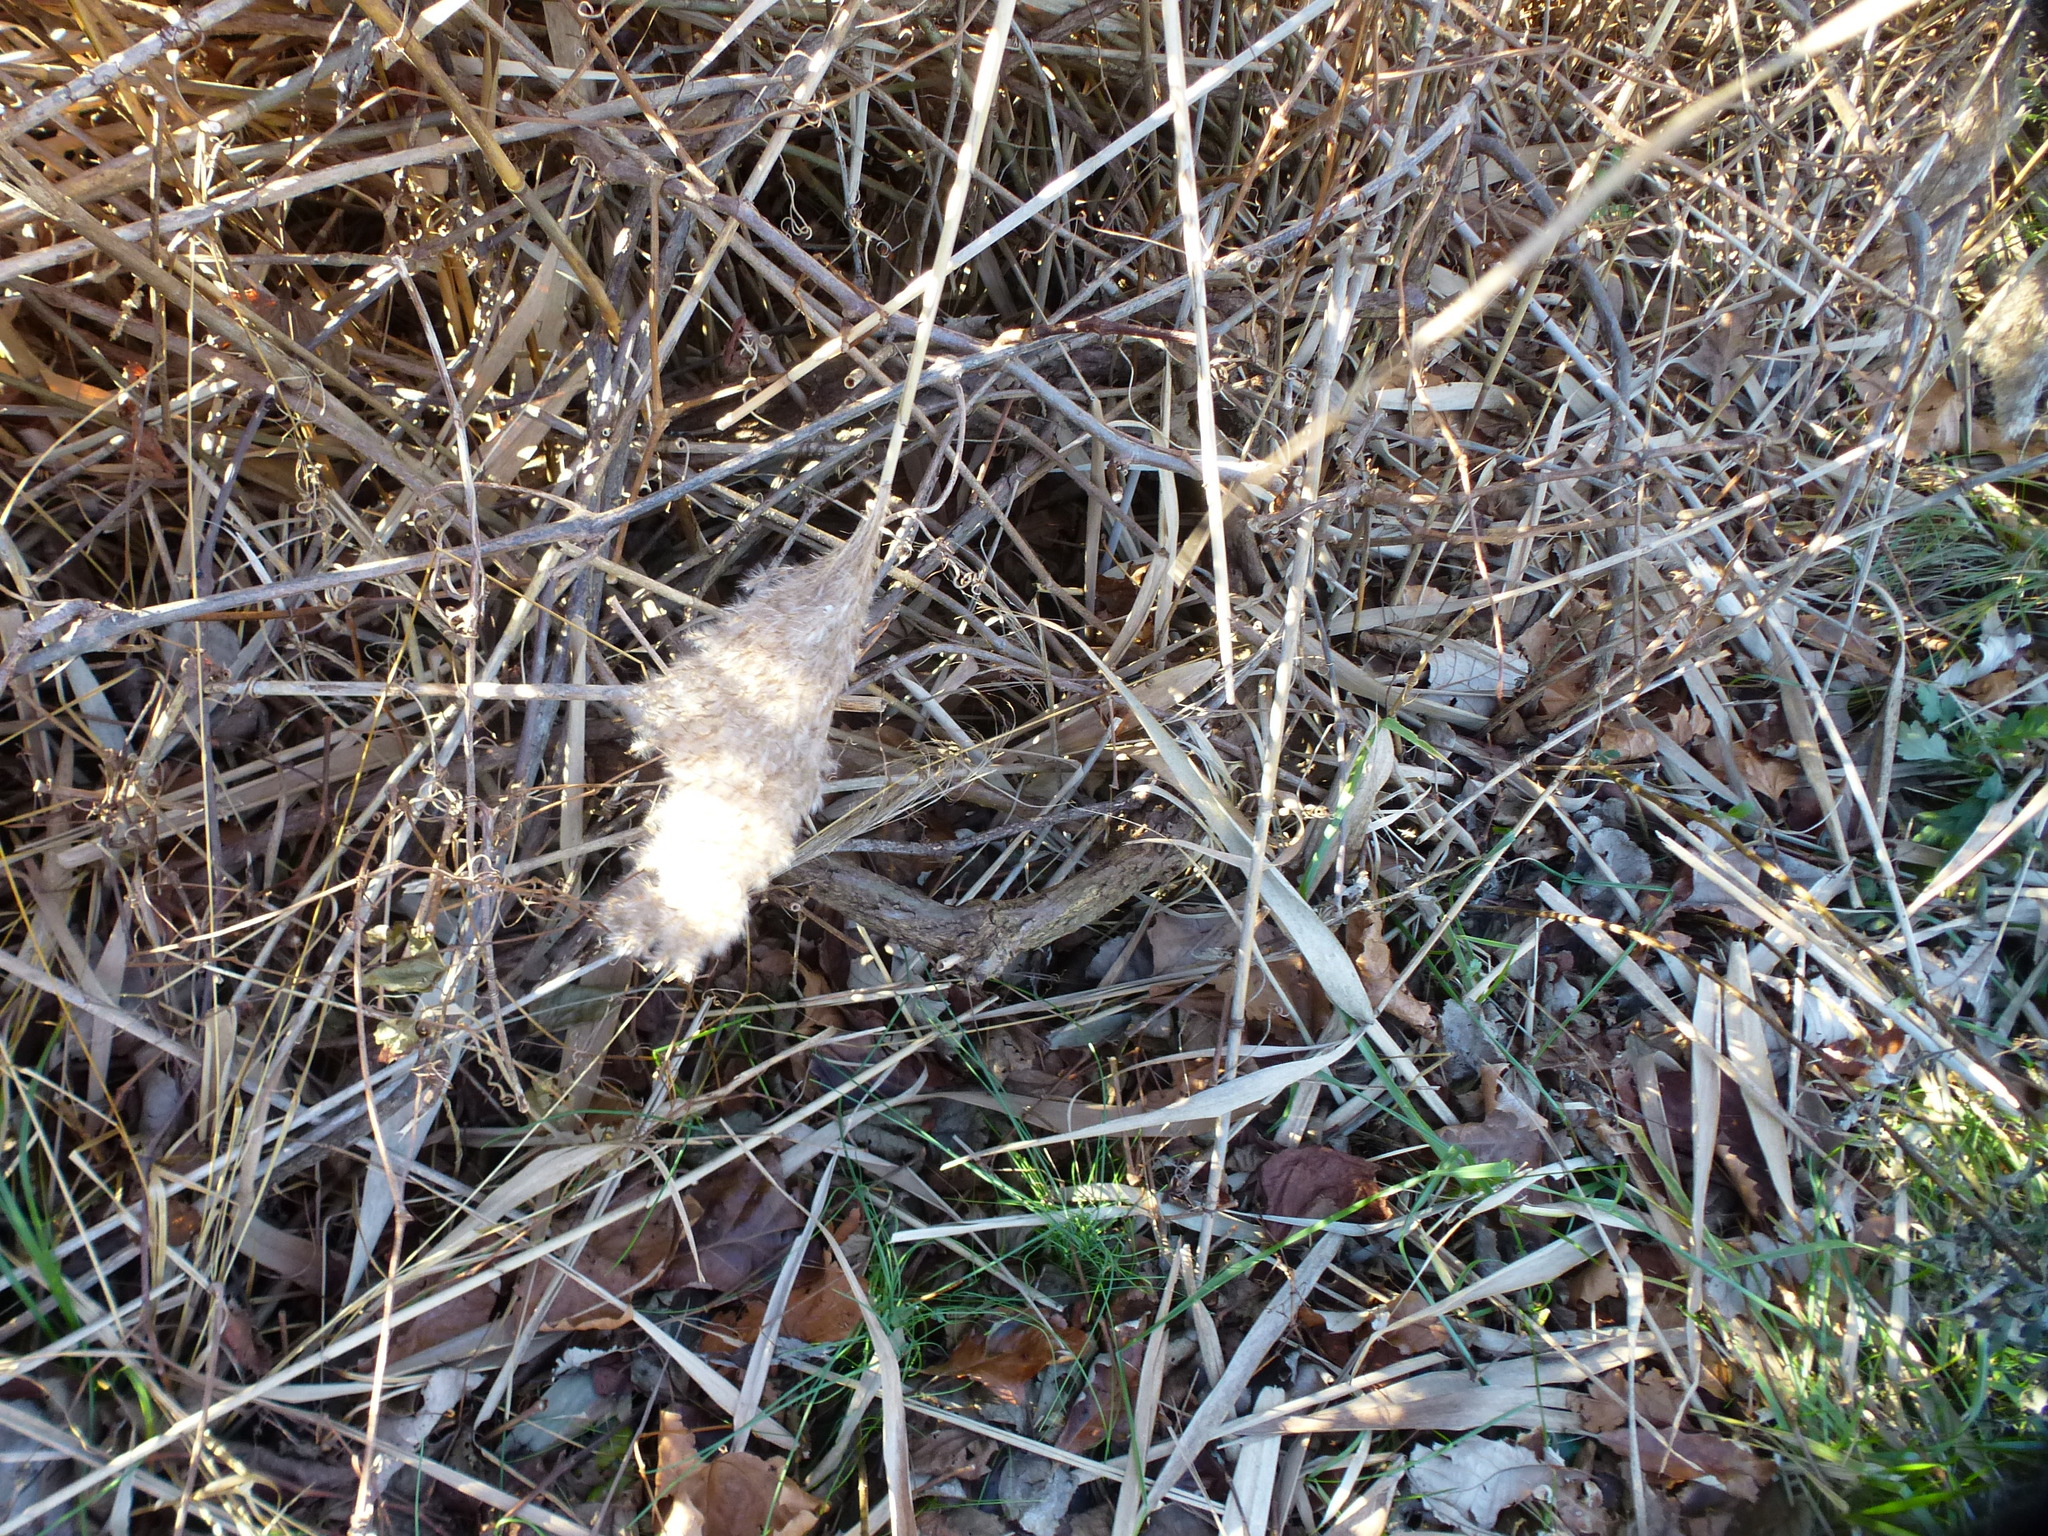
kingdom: Plantae
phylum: Tracheophyta
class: Liliopsida
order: Poales
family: Poaceae
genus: Phragmites
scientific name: Phragmites australis
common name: Common reed
